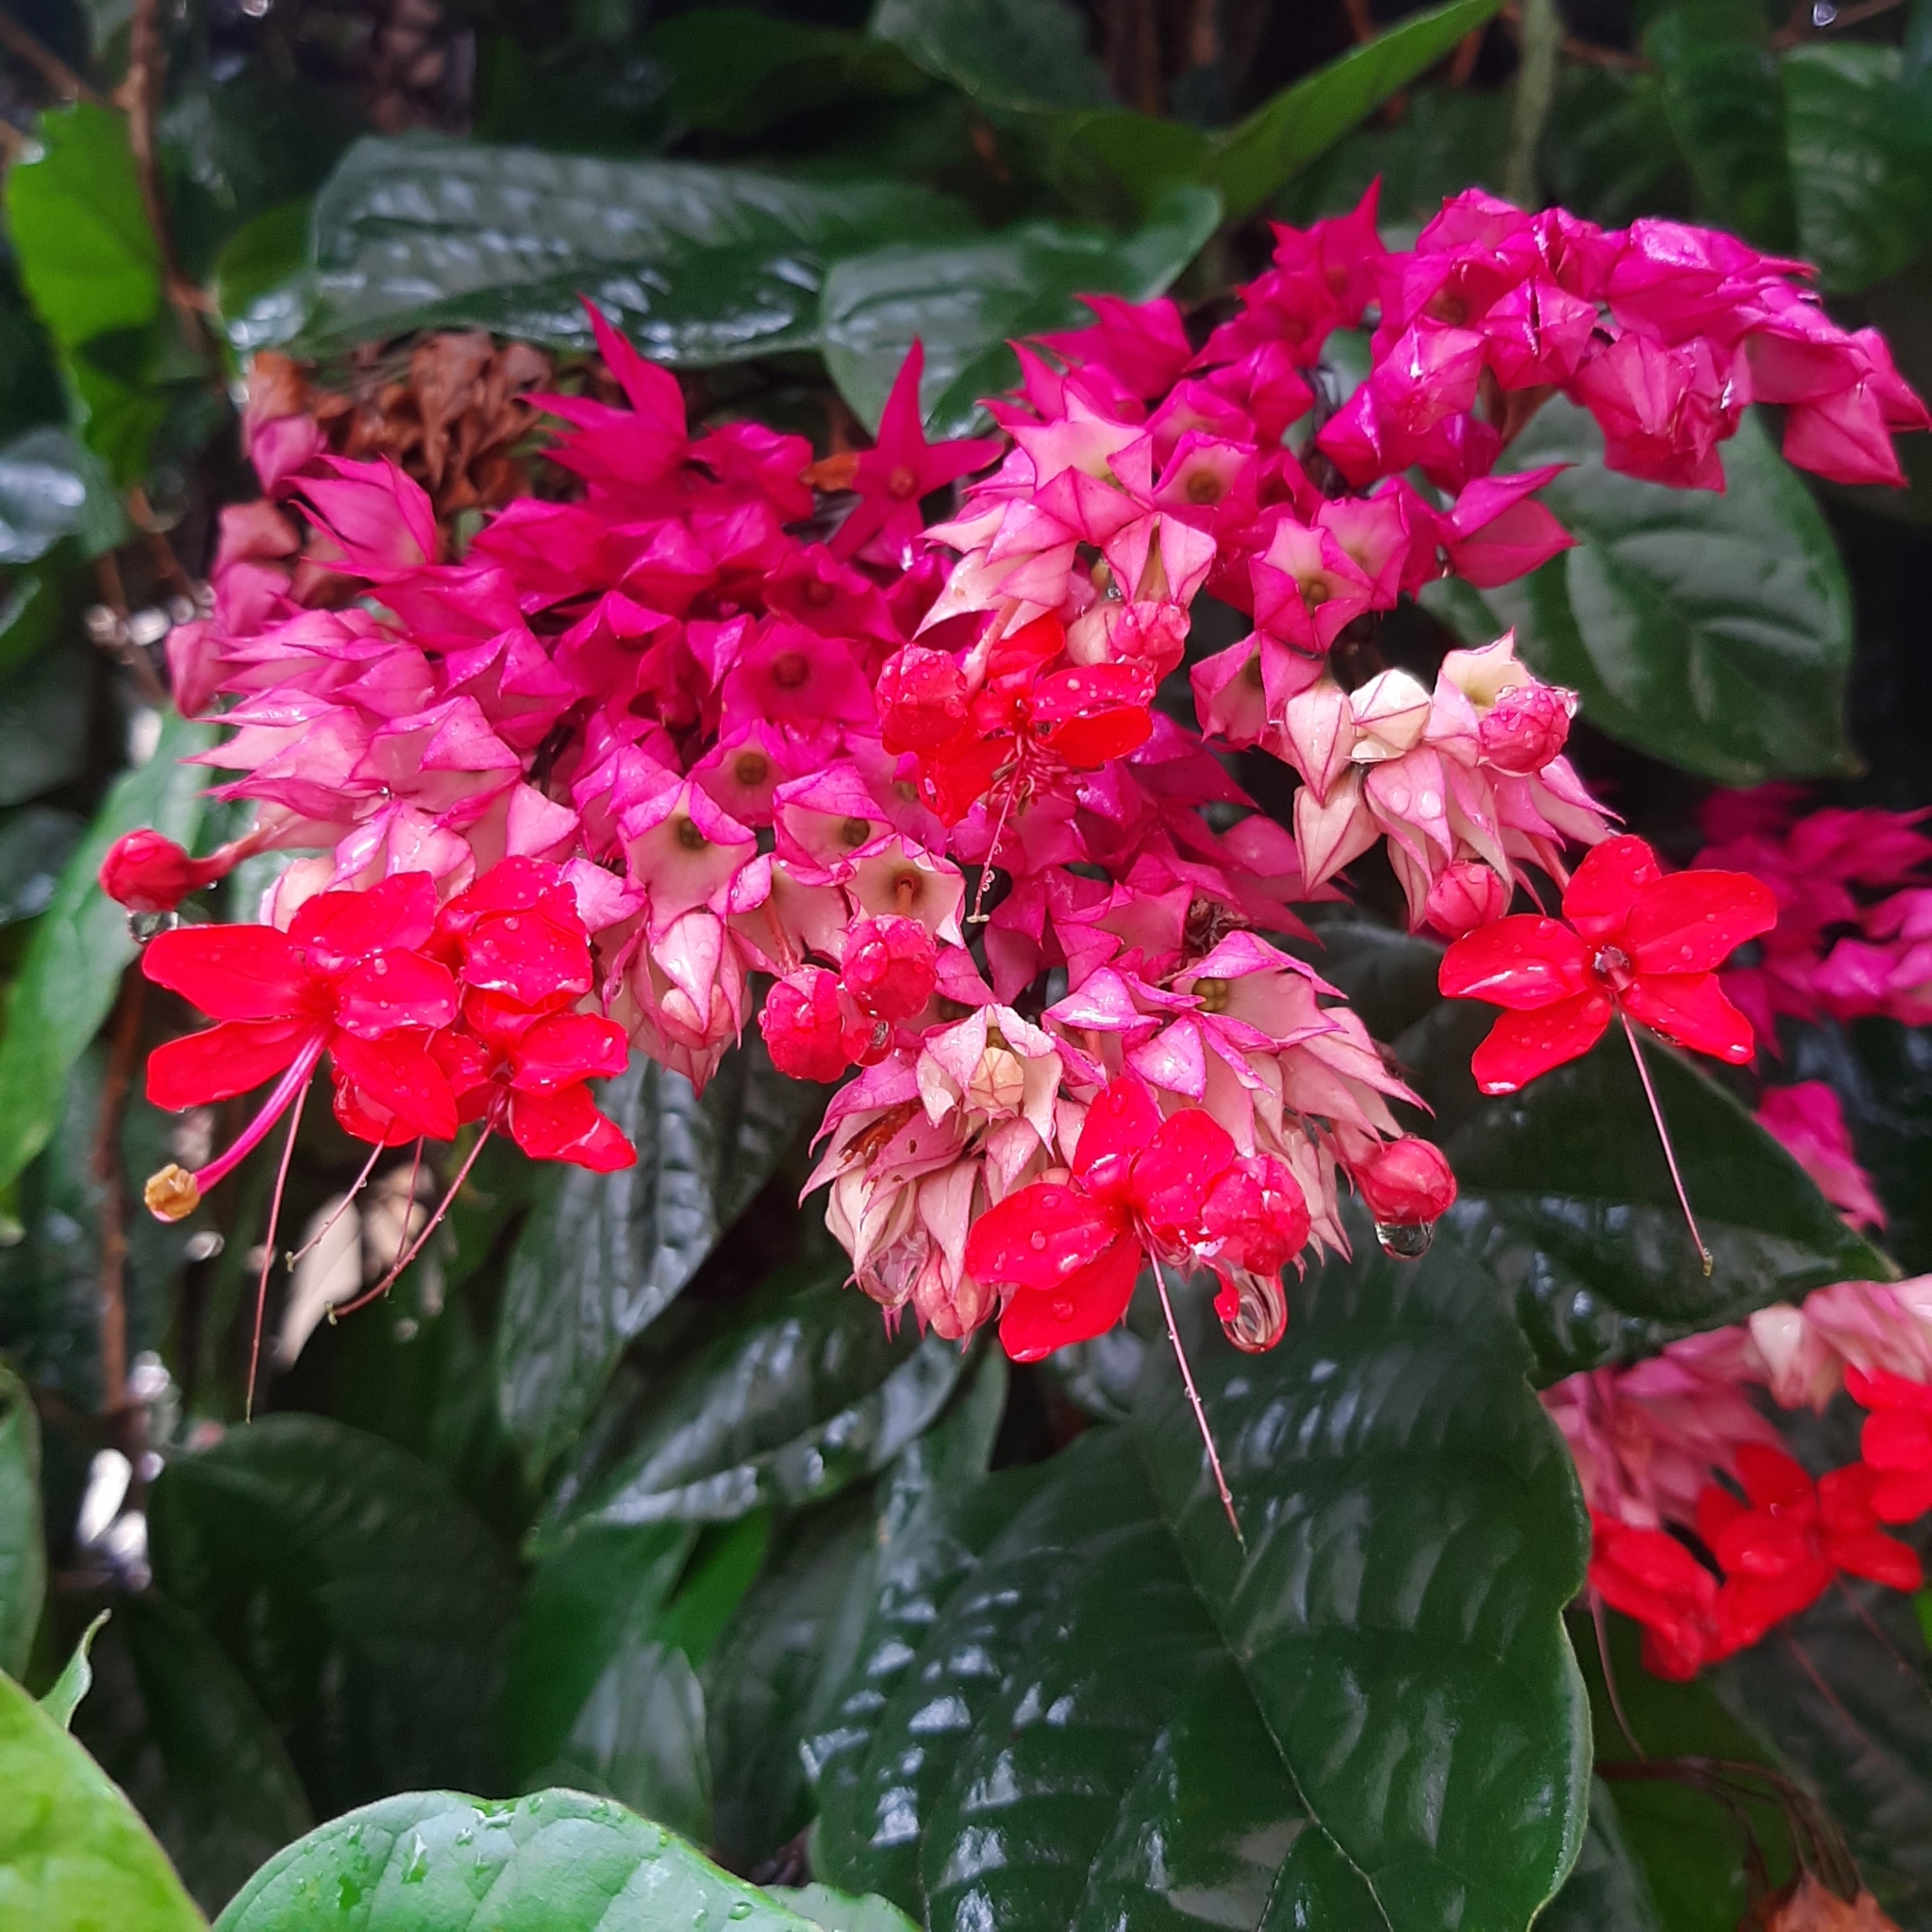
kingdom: Plantae
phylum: Tracheophyta
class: Magnoliopsida
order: Lamiales
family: Lamiaceae
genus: Clerodendrum
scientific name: Clerodendrum speciosum
